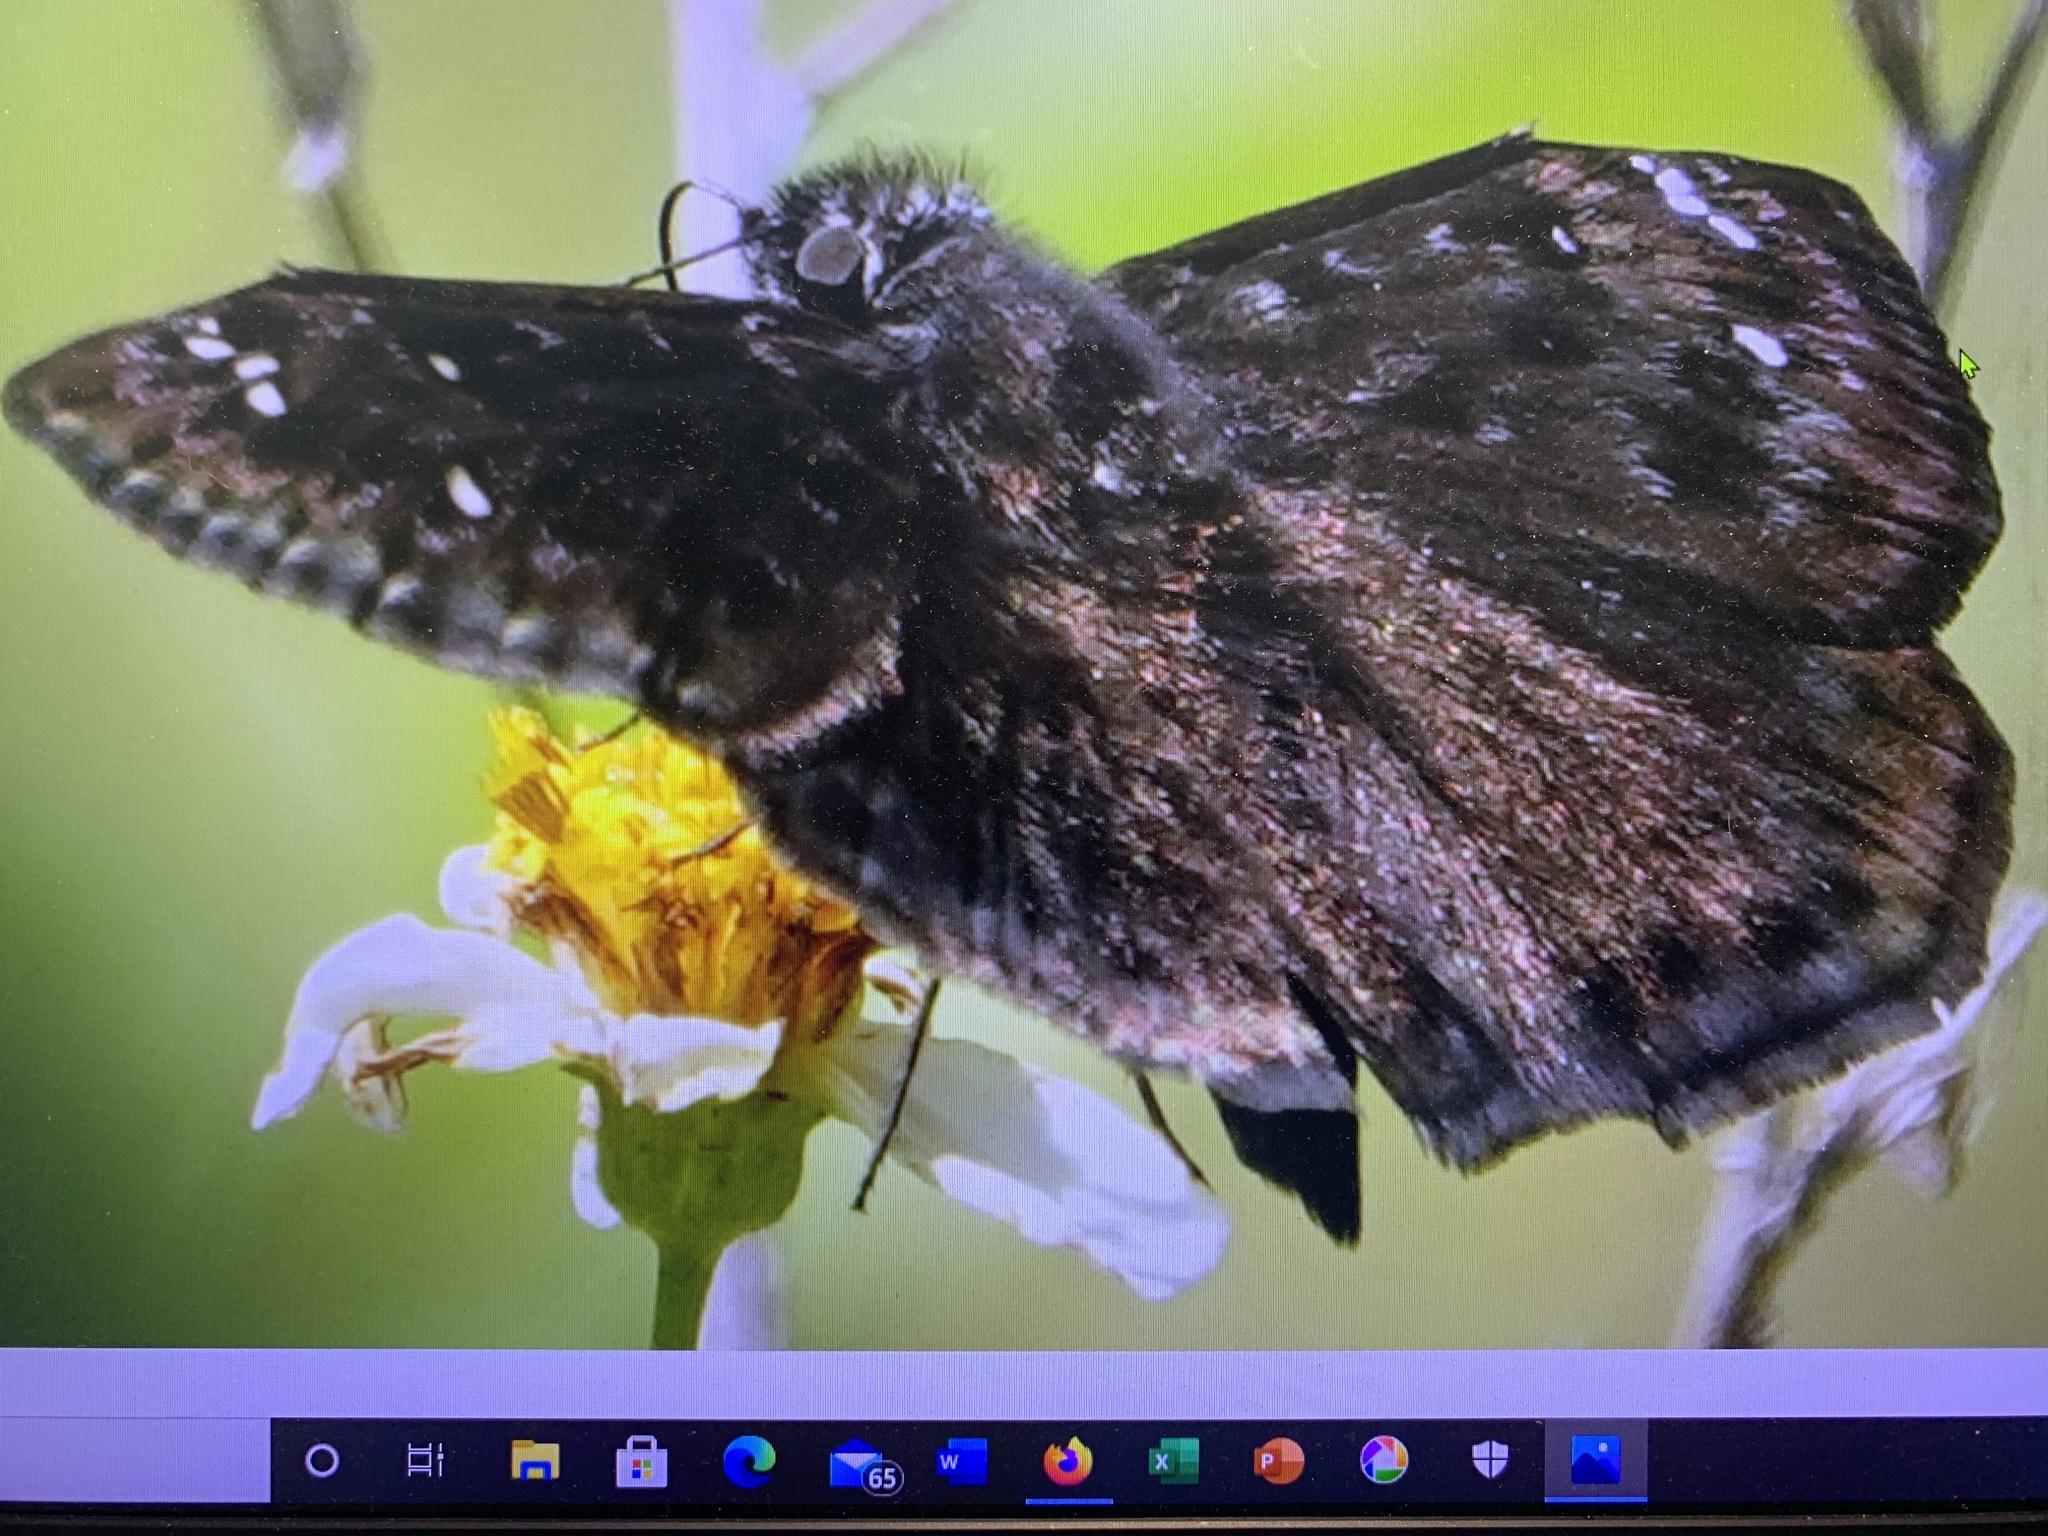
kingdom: Animalia
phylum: Arthropoda
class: Insecta
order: Lepidoptera
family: Hesperiidae
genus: Erynnis
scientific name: Erynnis horatius
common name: Horace's duskywing
